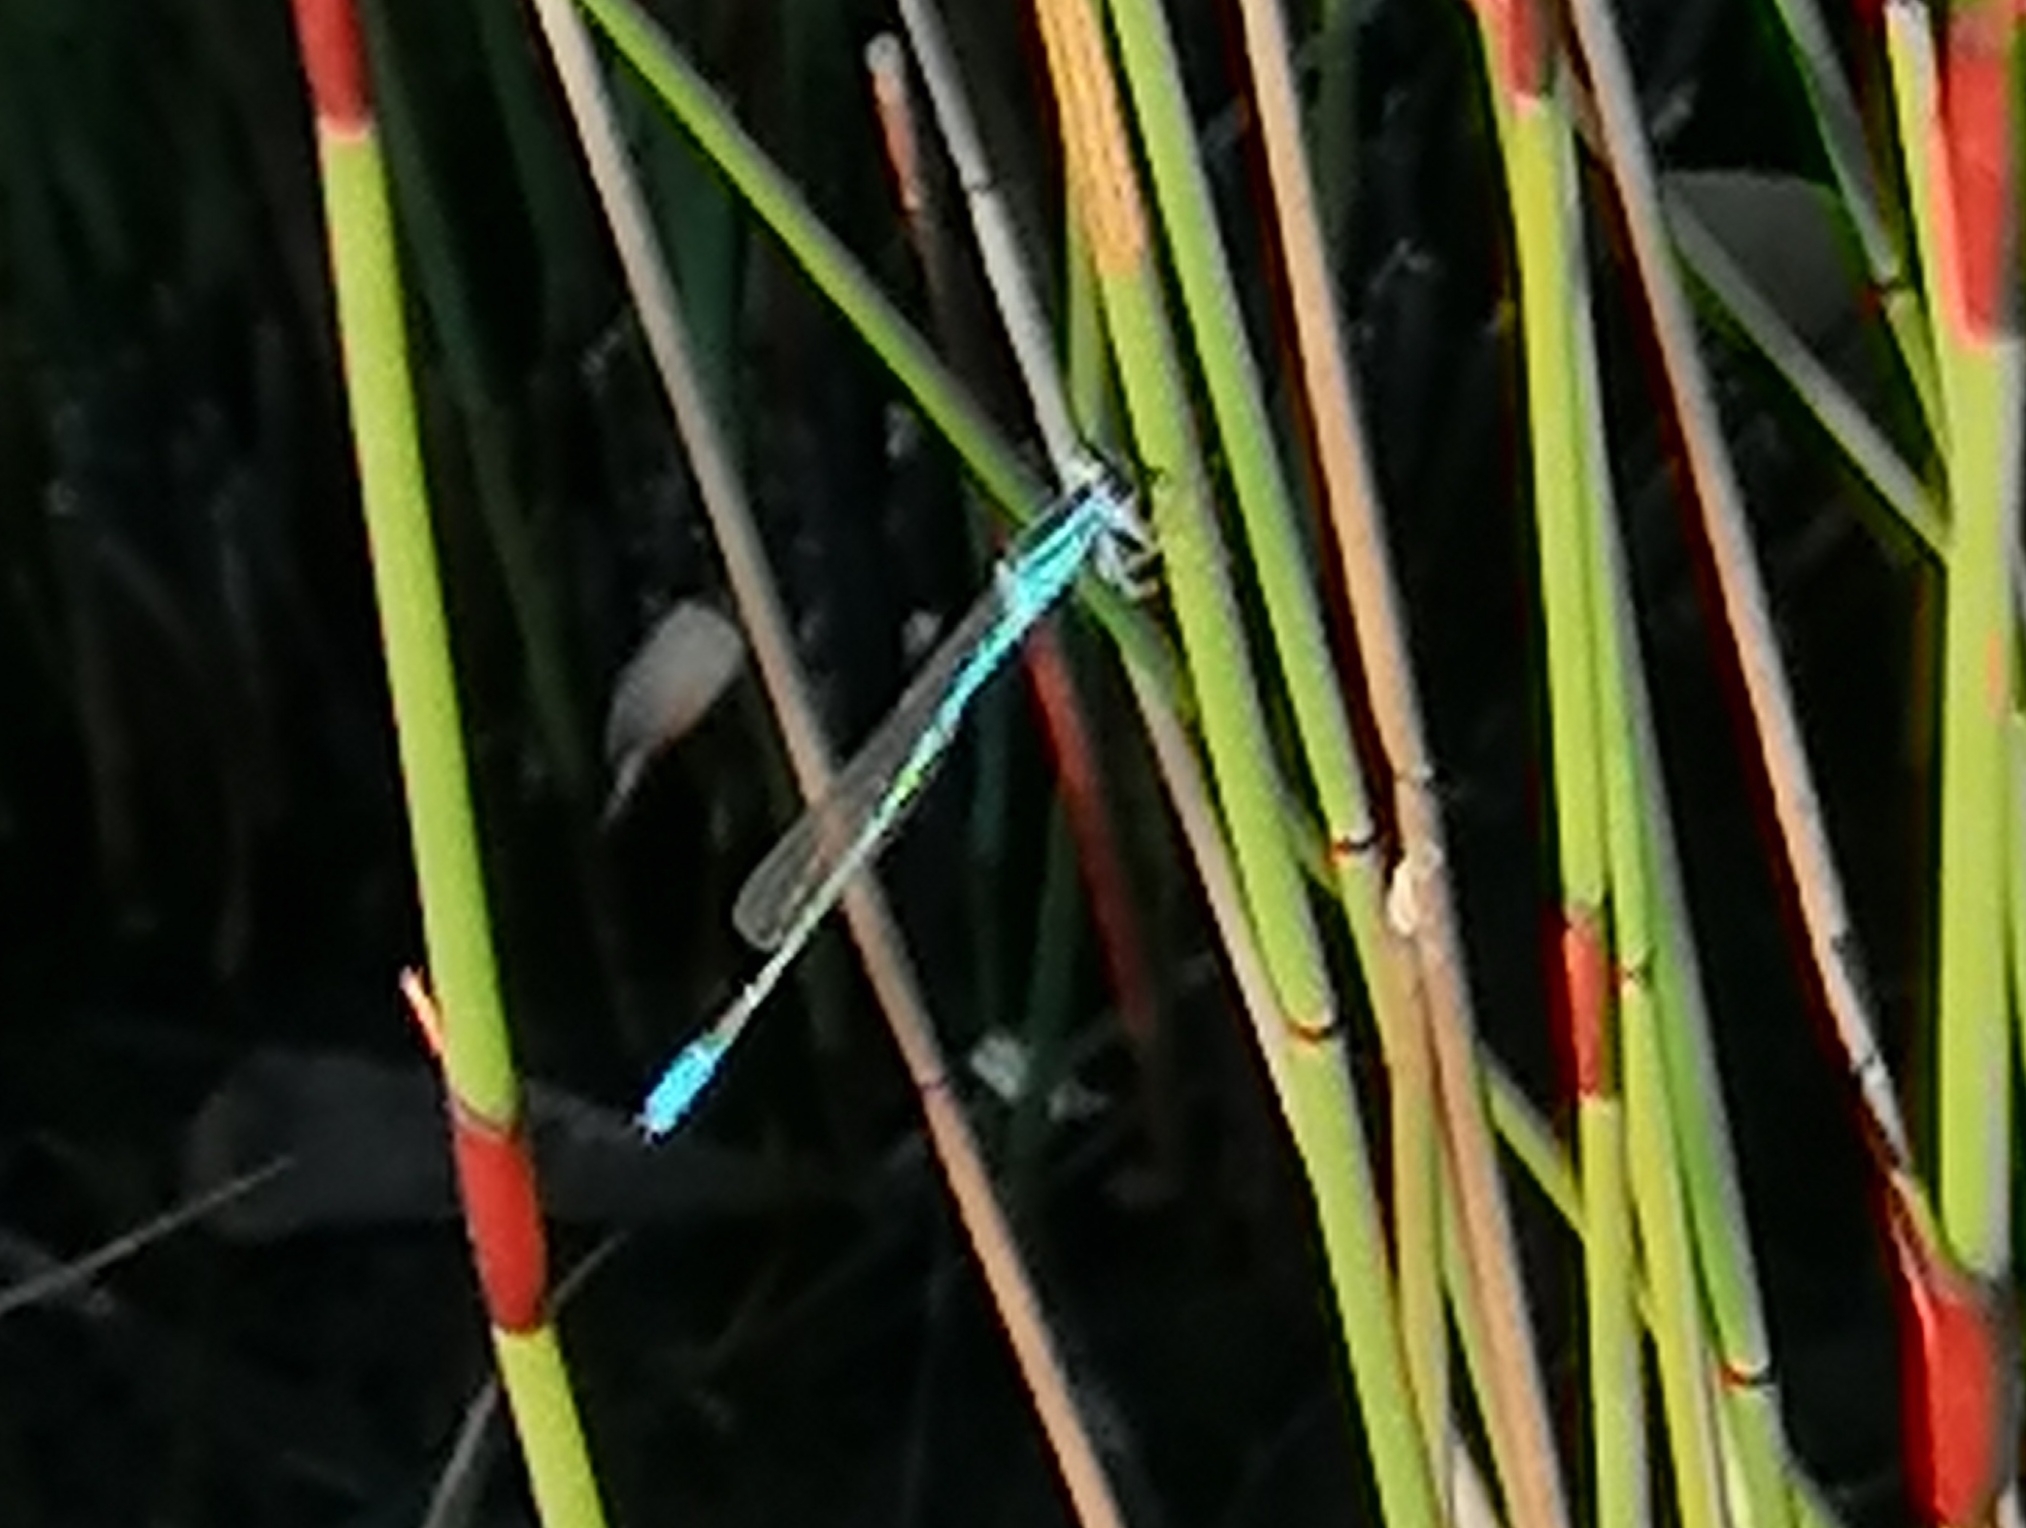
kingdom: Animalia
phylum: Arthropoda
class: Insecta
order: Odonata
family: Coenagrionidae
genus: Africallagma
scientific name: Africallagma glaucum
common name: Swamp bluet
